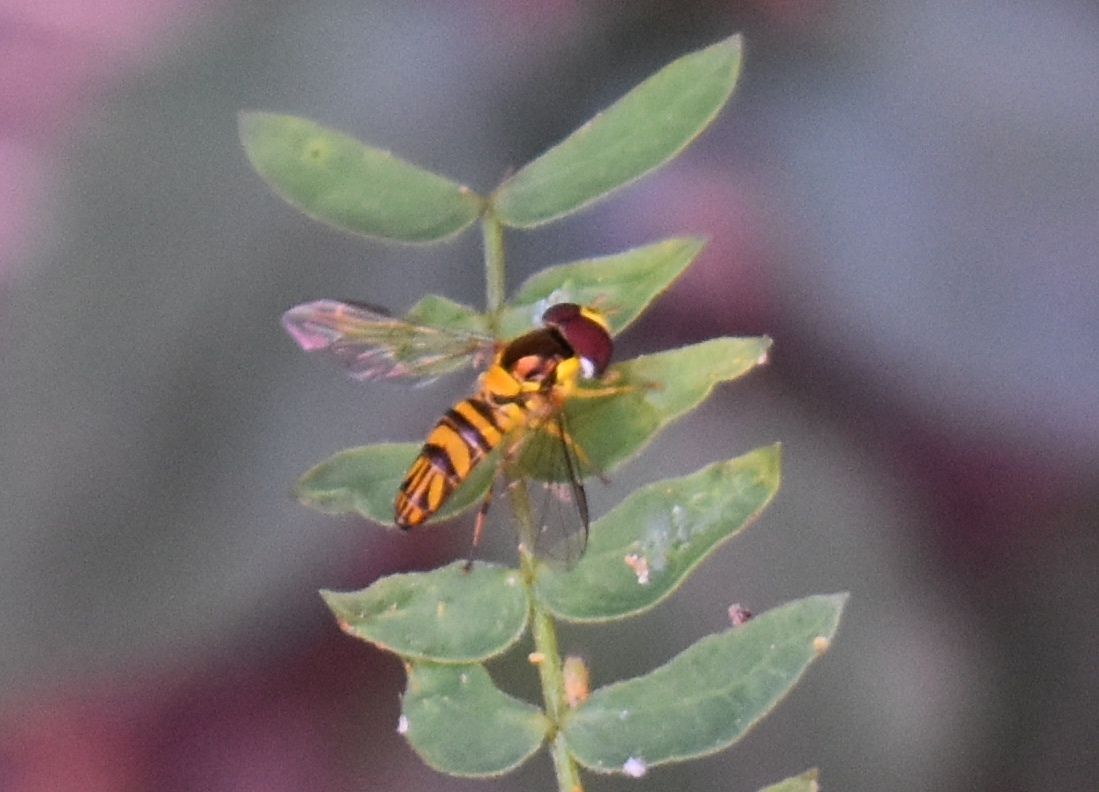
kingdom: Animalia
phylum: Arthropoda
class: Insecta
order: Diptera
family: Syrphidae
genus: Allograpta
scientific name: Allograpta obliqua
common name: Common oblique syrphid
